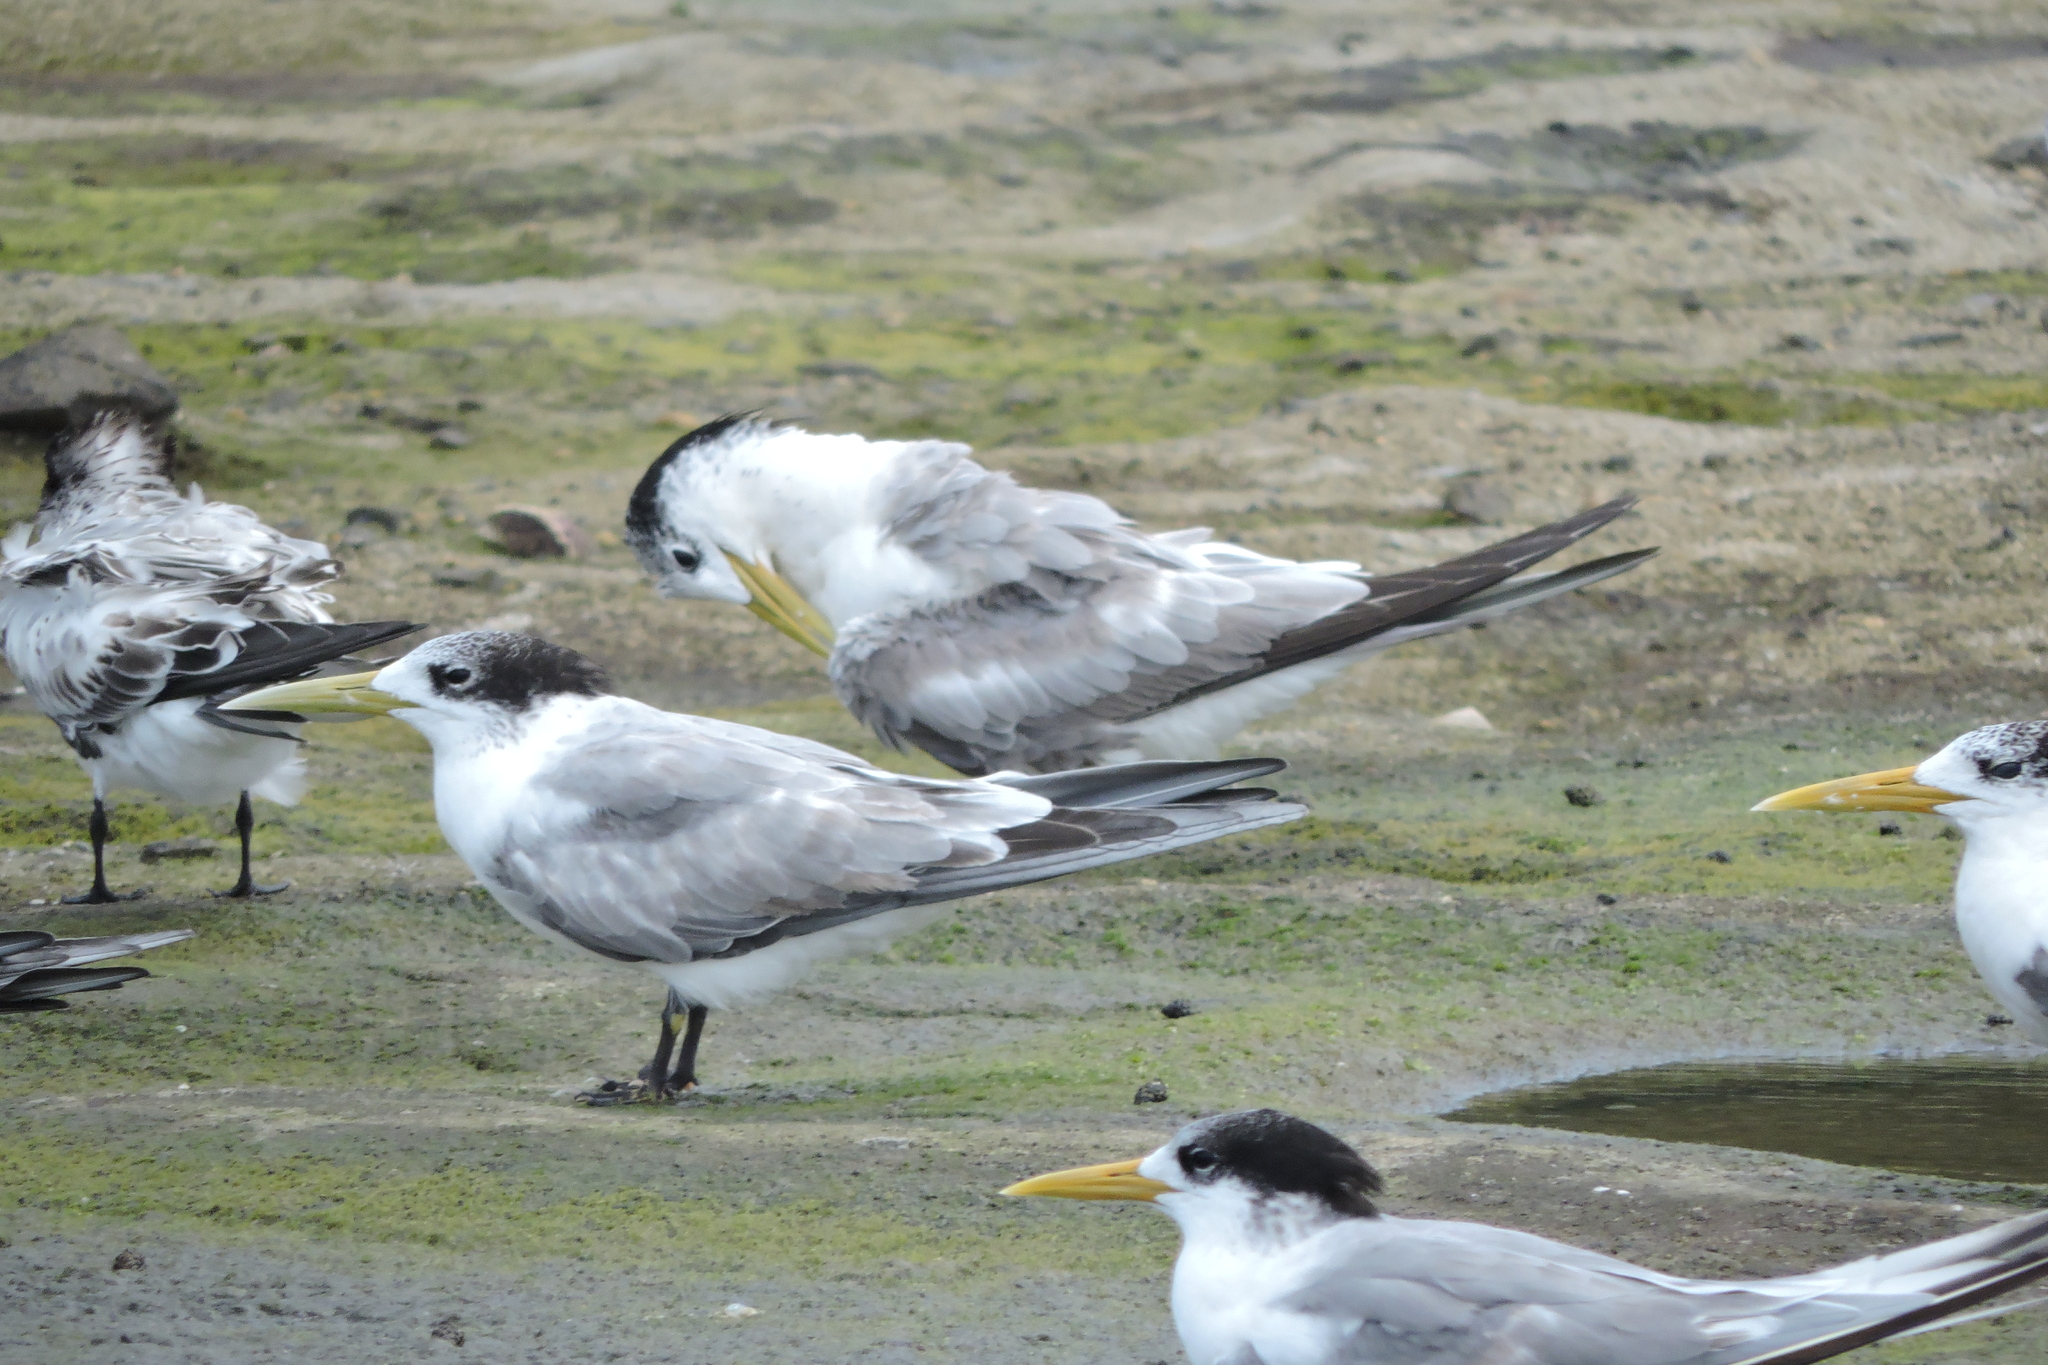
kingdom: Animalia
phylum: Chordata
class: Aves
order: Charadriiformes
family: Laridae
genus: Thalasseus
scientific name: Thalasseus bergii
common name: Greater crested tern
